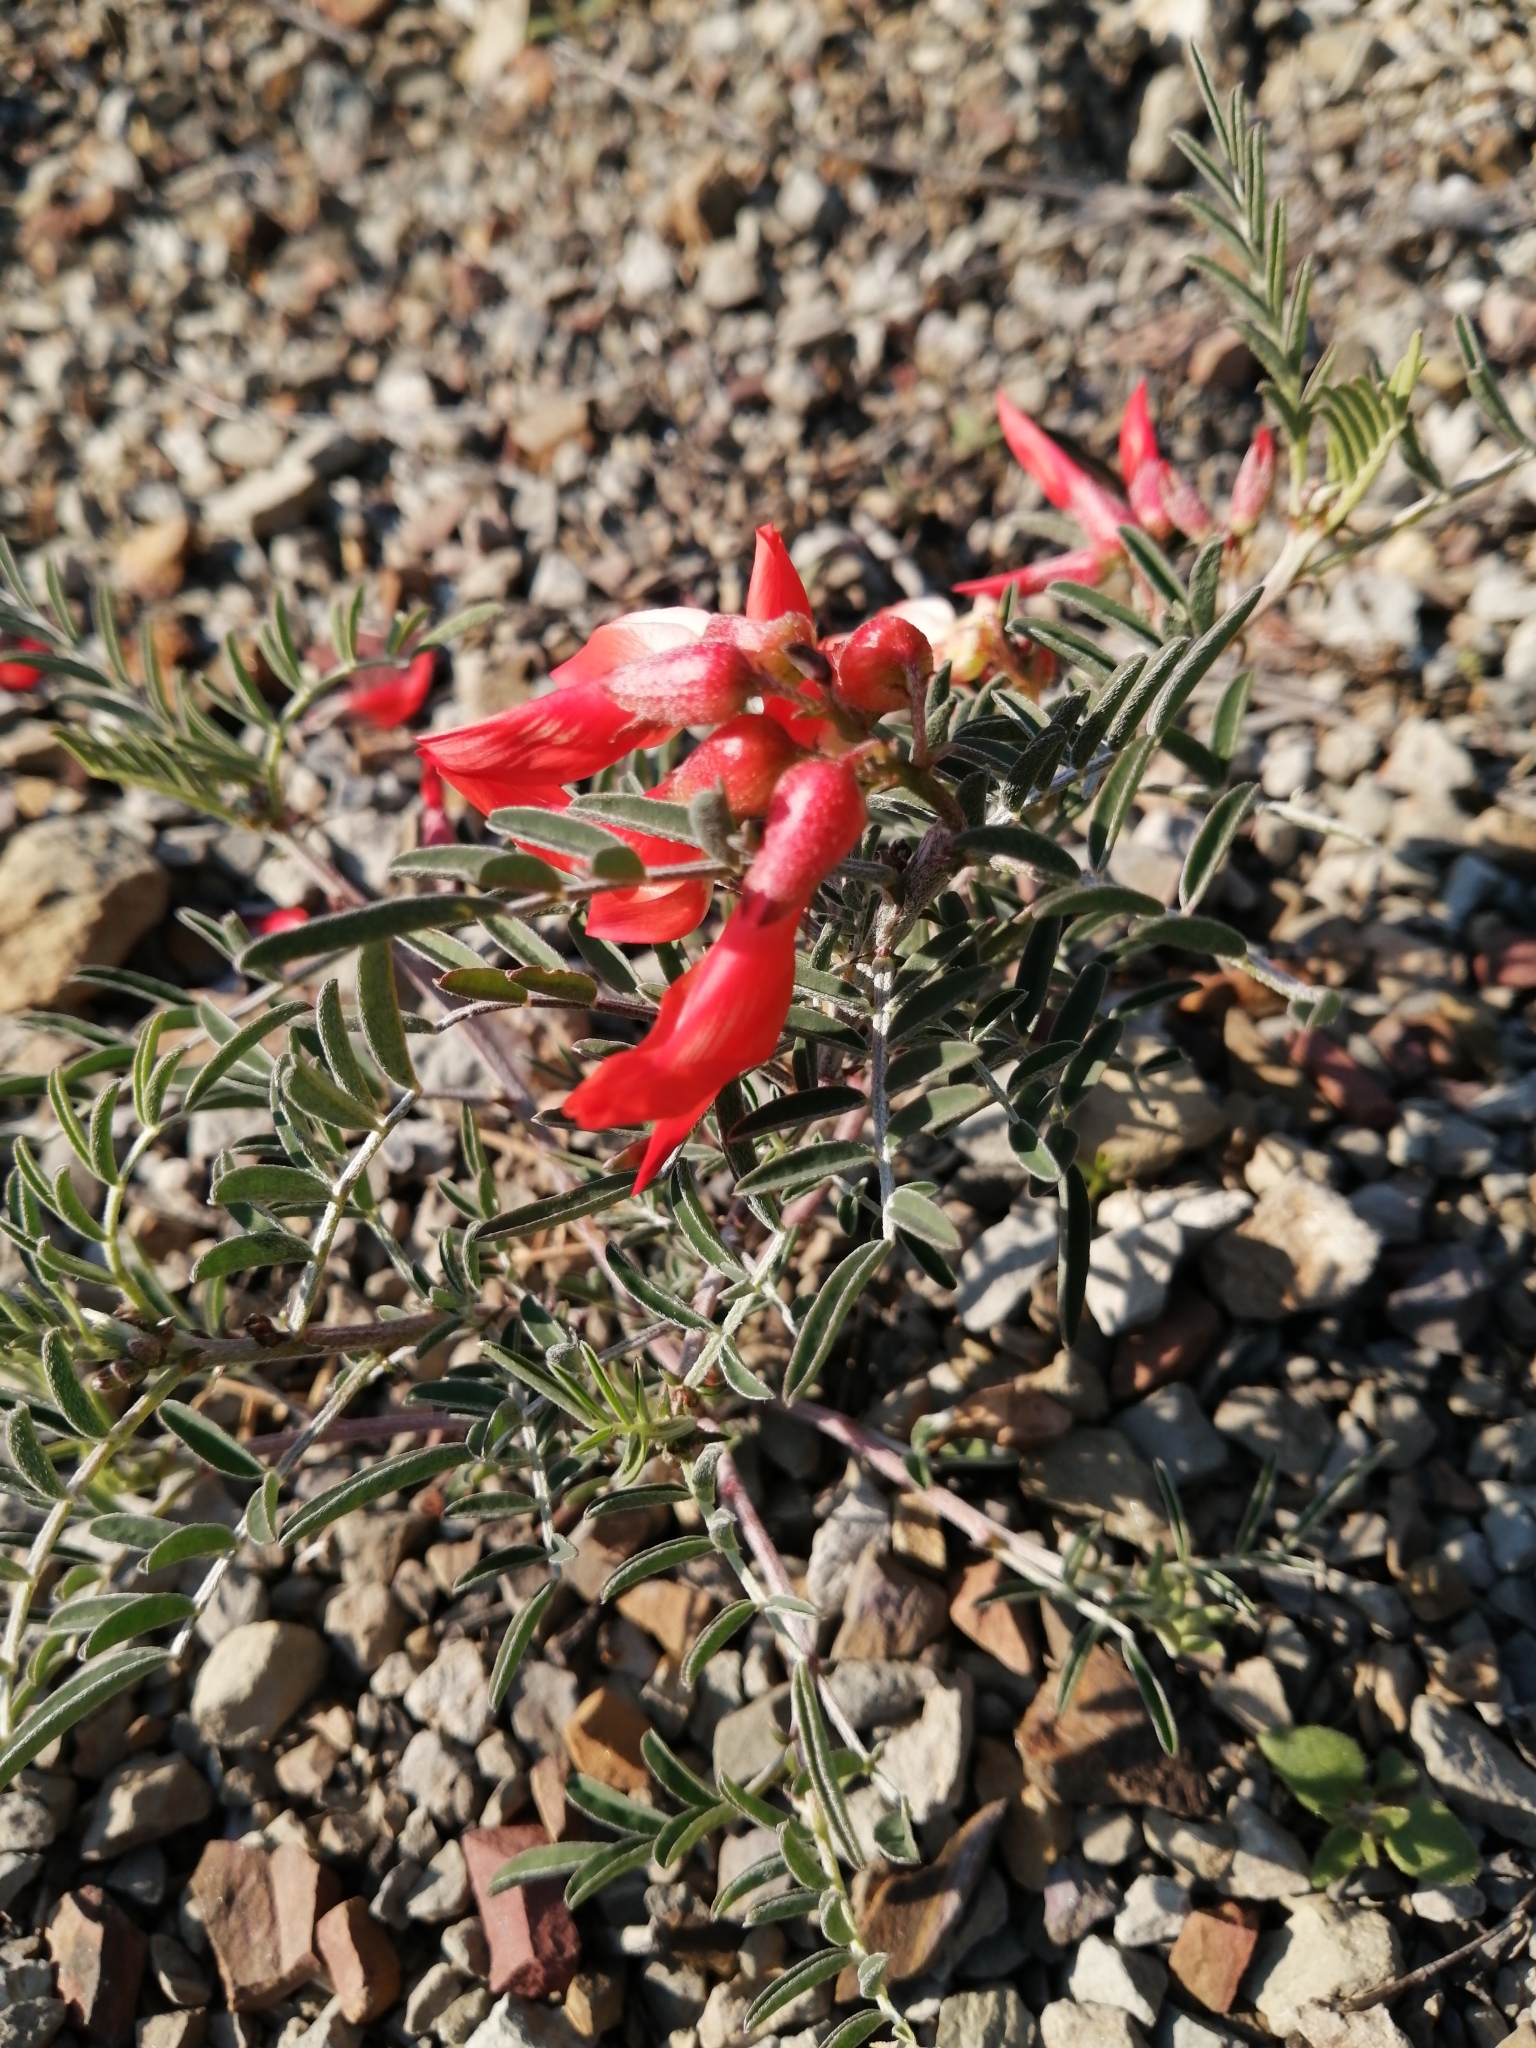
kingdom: Plantae
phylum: Tracheophyta
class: Magnoliopsida
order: Fabales
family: Fabaceae
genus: Lessertia
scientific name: Lessertia frutescens
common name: Balloon-pea
